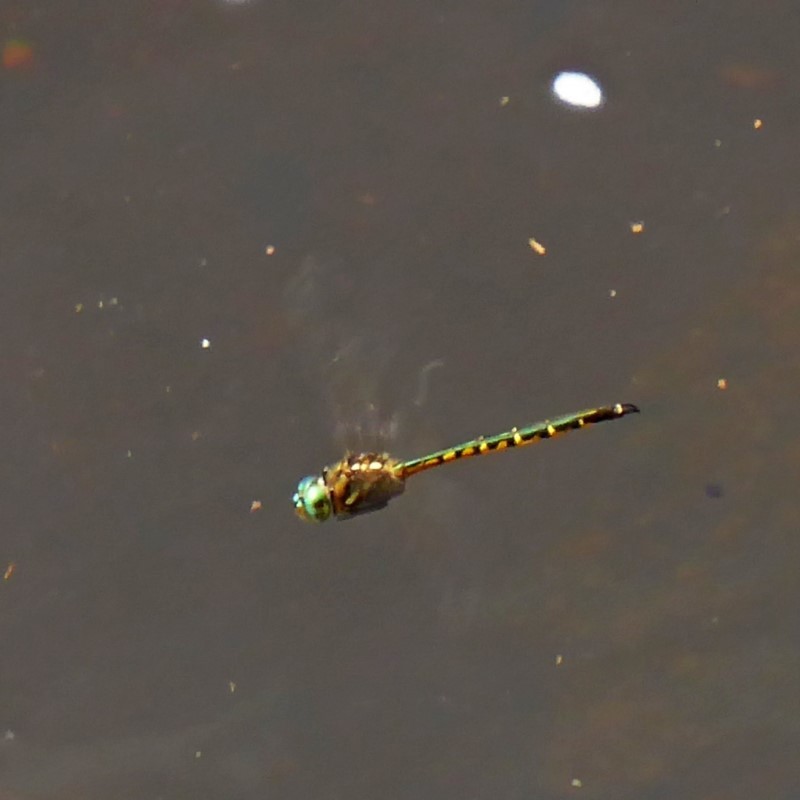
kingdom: Animalia
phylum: Arthropoda
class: Insecta
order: Odonata
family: Corduliidae
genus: Hemicordulia
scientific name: Hemicordulia australiae
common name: Sentry dragonfly
